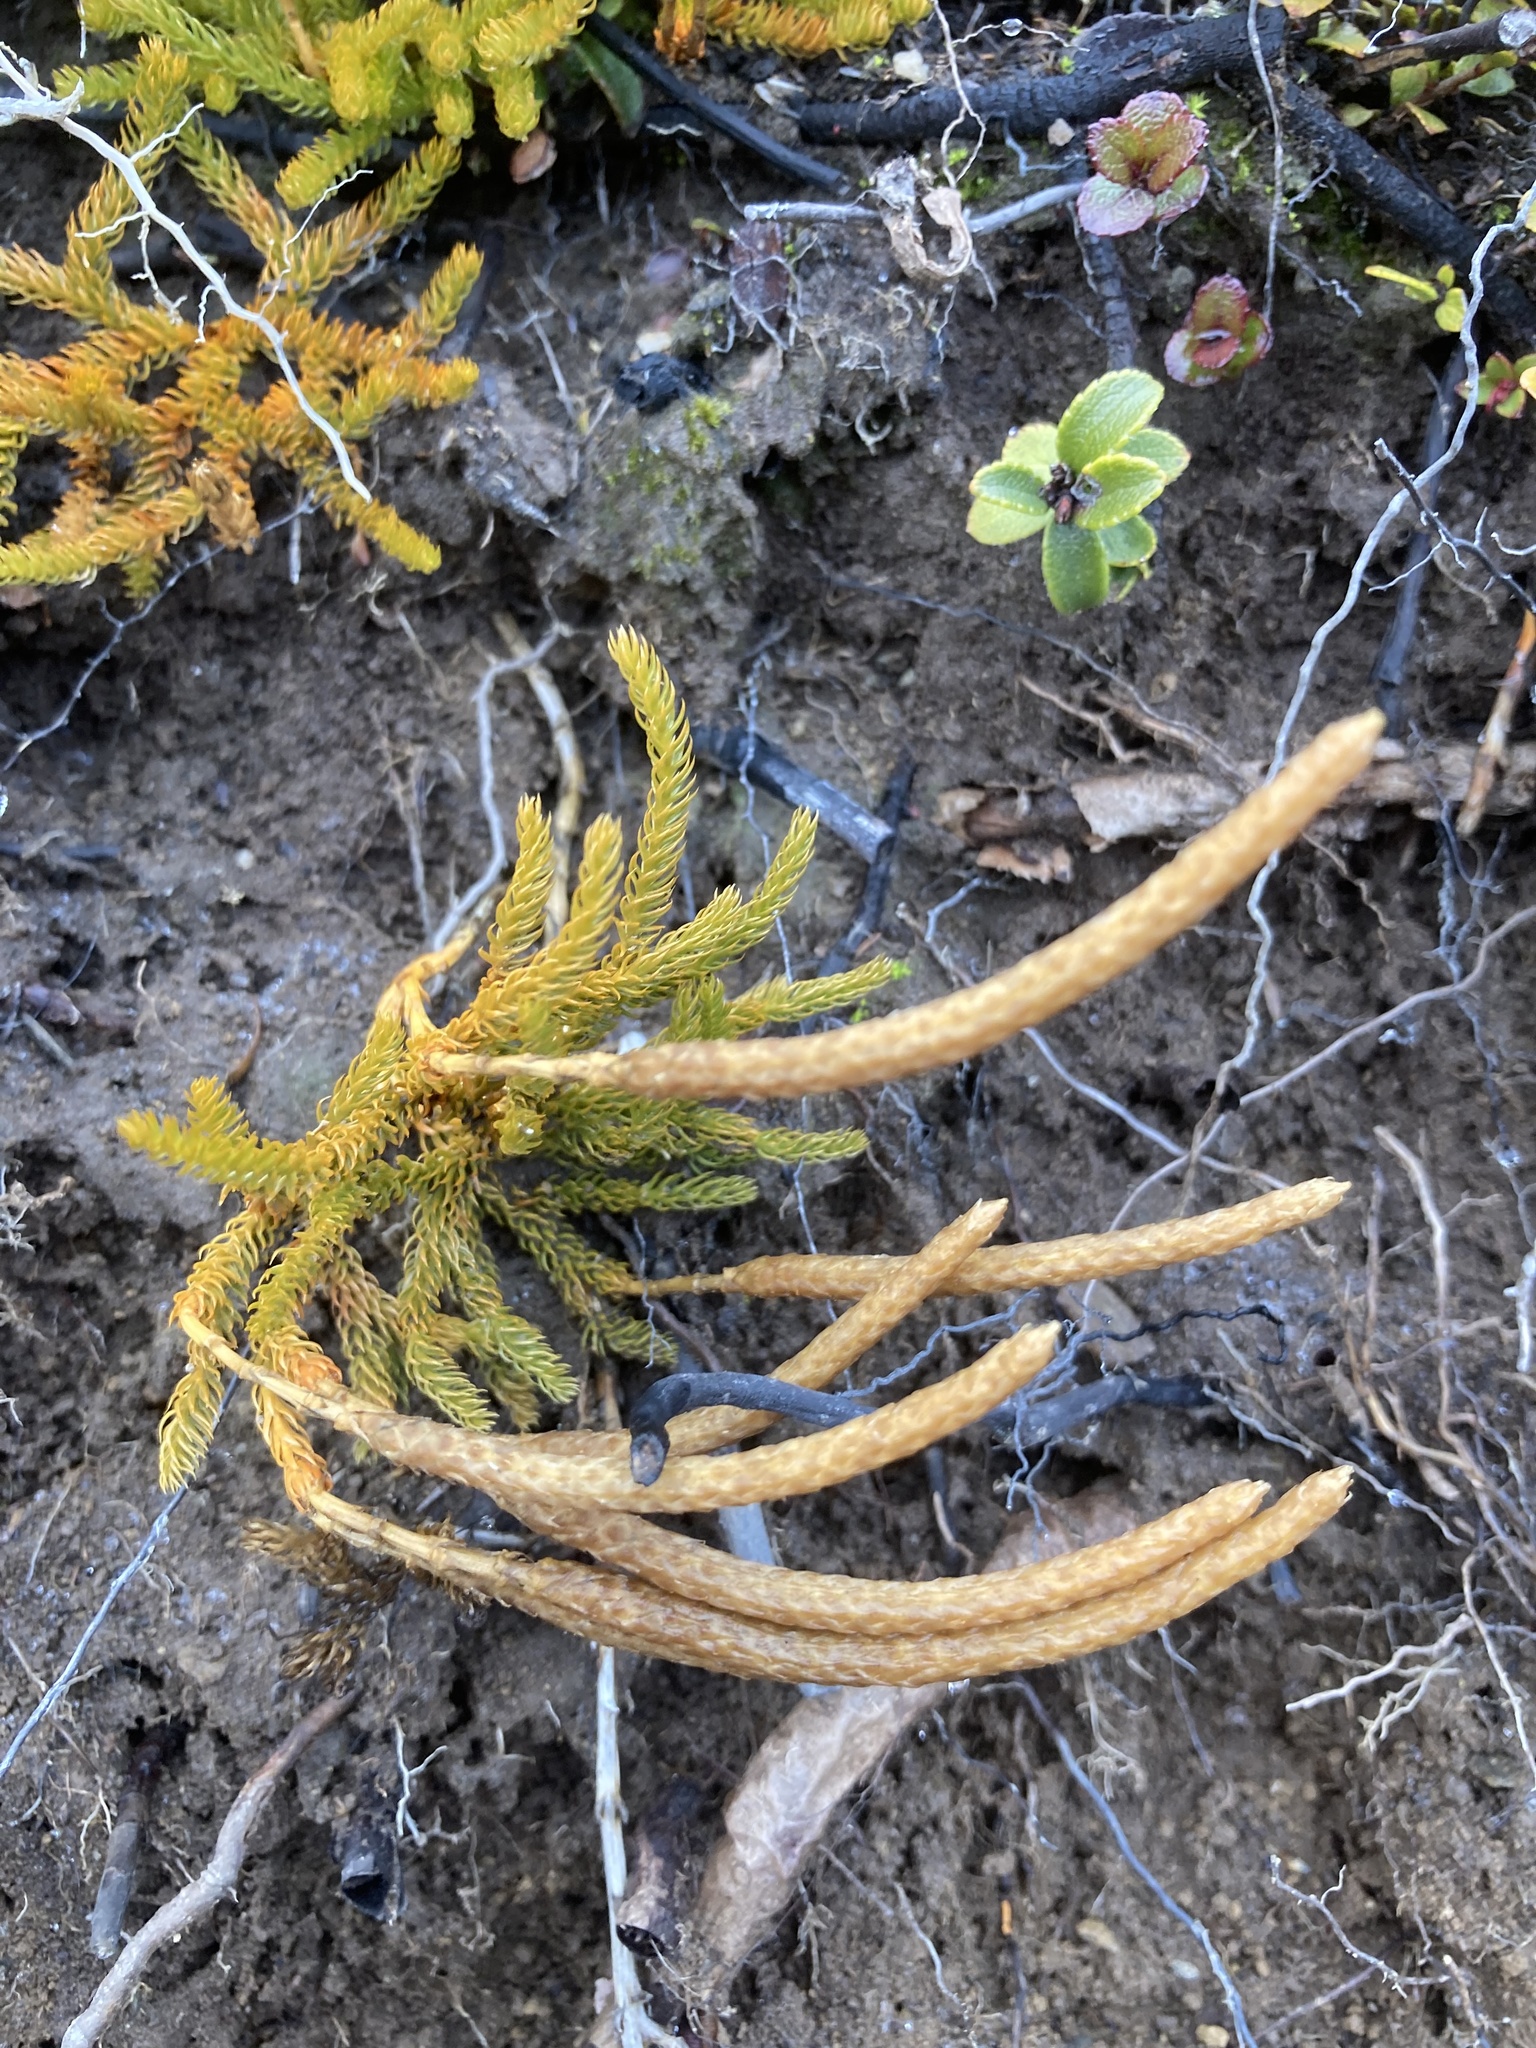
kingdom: Plantae
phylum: Tracheophyta
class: Lycopodiopsida
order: Lycopodiales
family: Lycopodiaceae
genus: Austrolycopodium
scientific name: Austrolycopodium fastigiatum
